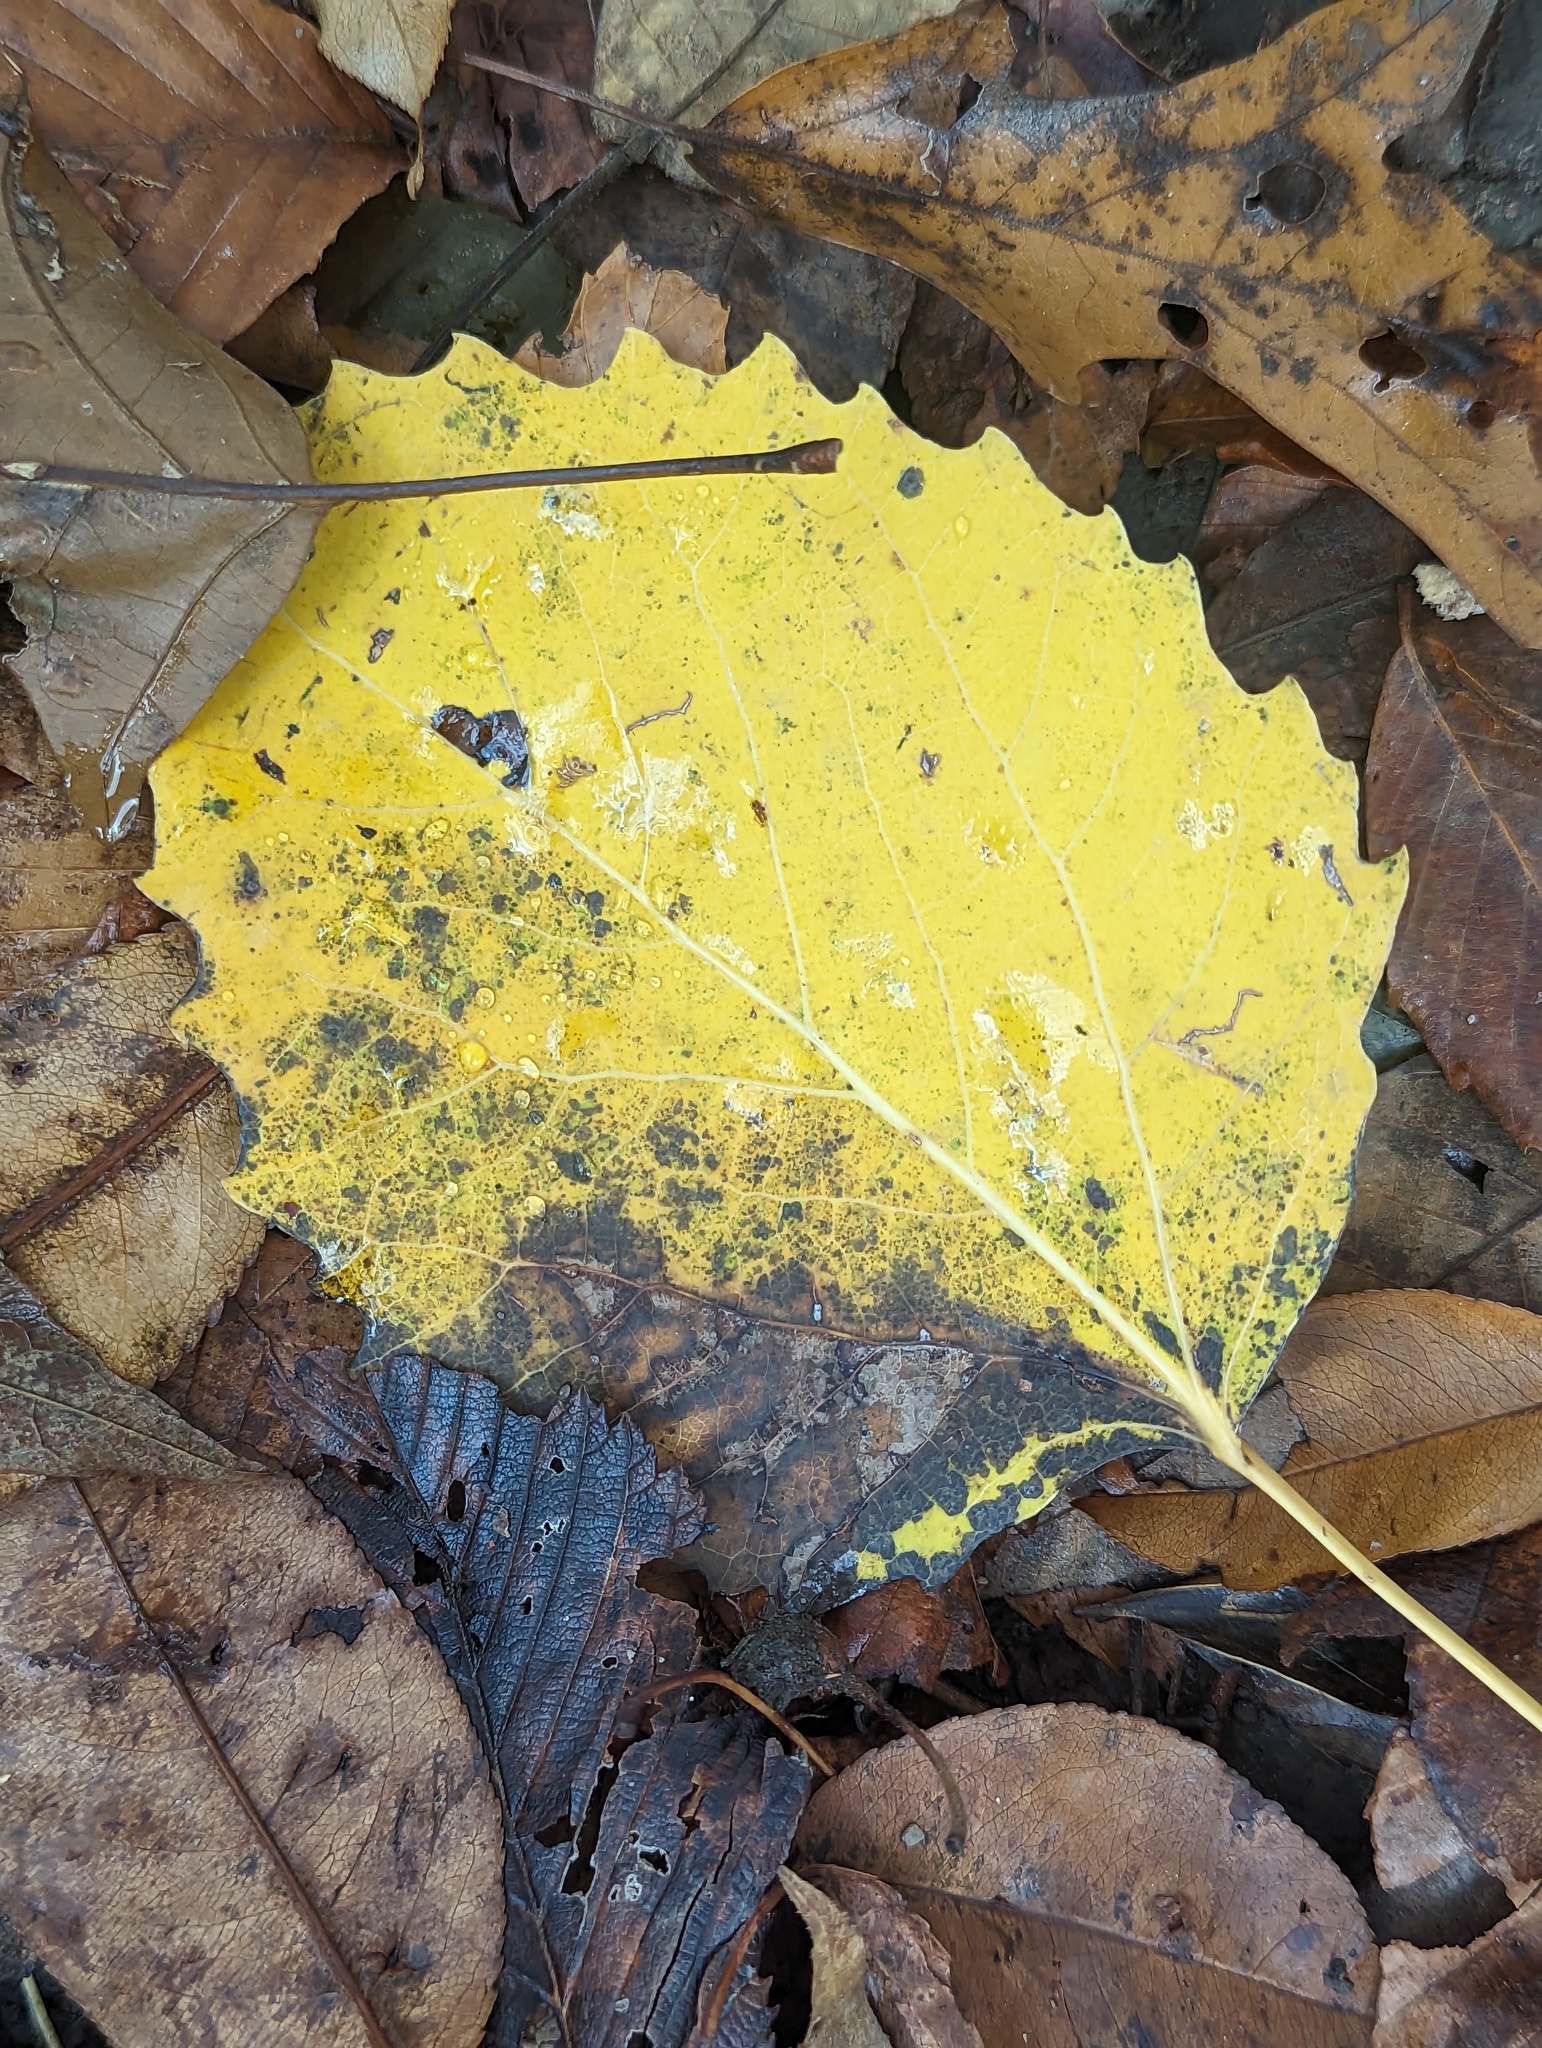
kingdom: Plantae
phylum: Tracheophyta
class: Magnoliopsida
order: Malpighiales
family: Salicaceae
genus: Populus
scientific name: Populus grandidentata
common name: Bigtooth aspen
